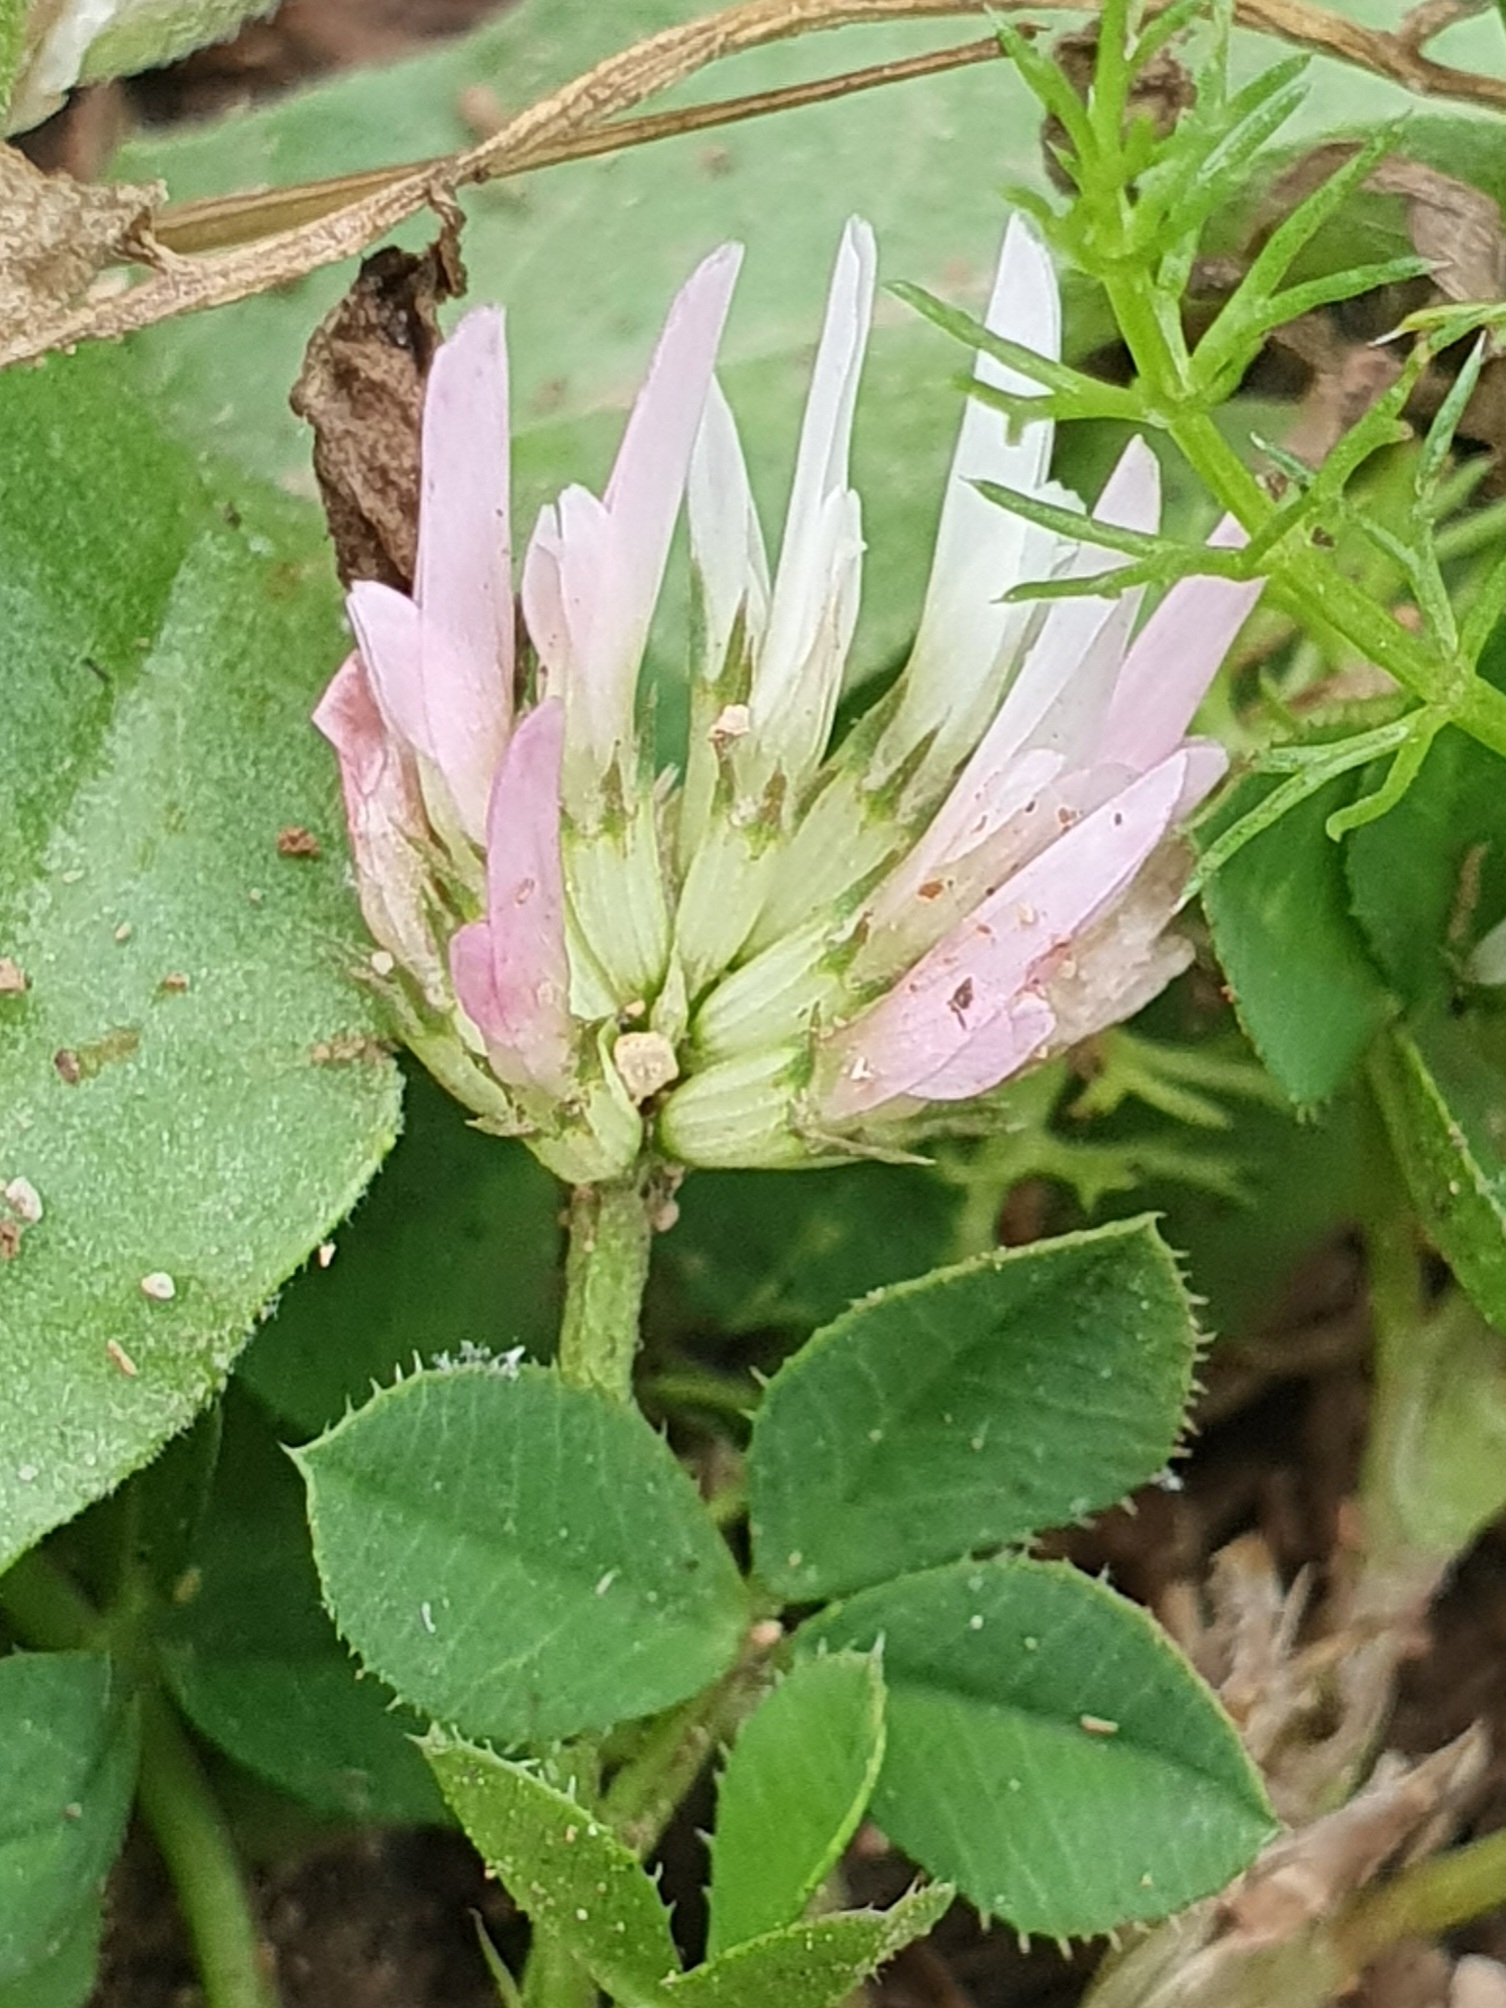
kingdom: Plantae
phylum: Tracheophyta
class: Magnoliopsida
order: Fabales
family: Fabaceae
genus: Trifolium
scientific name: Trifolium isthmocarpum
